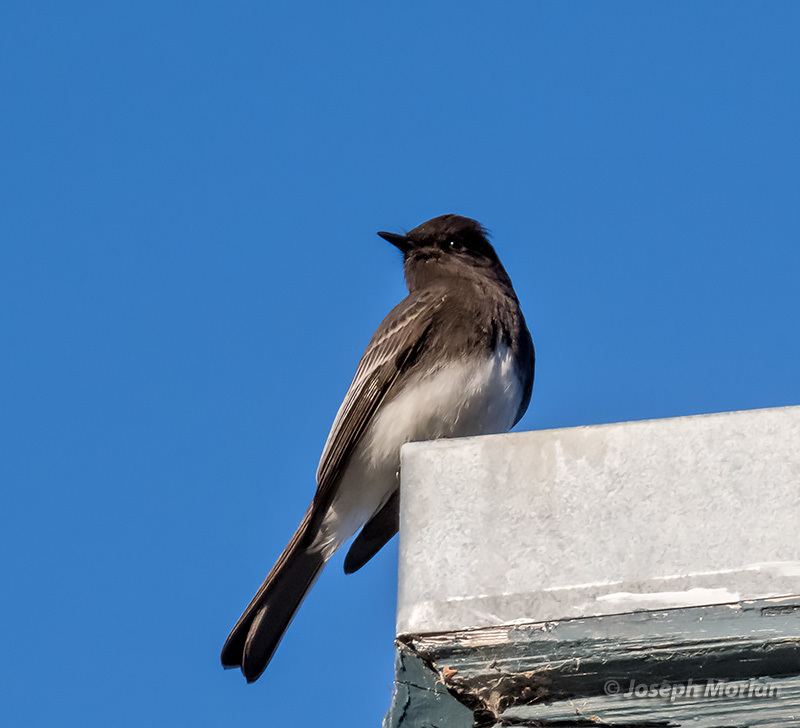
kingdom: Animalia
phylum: Chordata
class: Aves
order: Passeriformes
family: Tyrannidae
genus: Sayornis
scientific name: Sayornis nigricans
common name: Black phoebe
